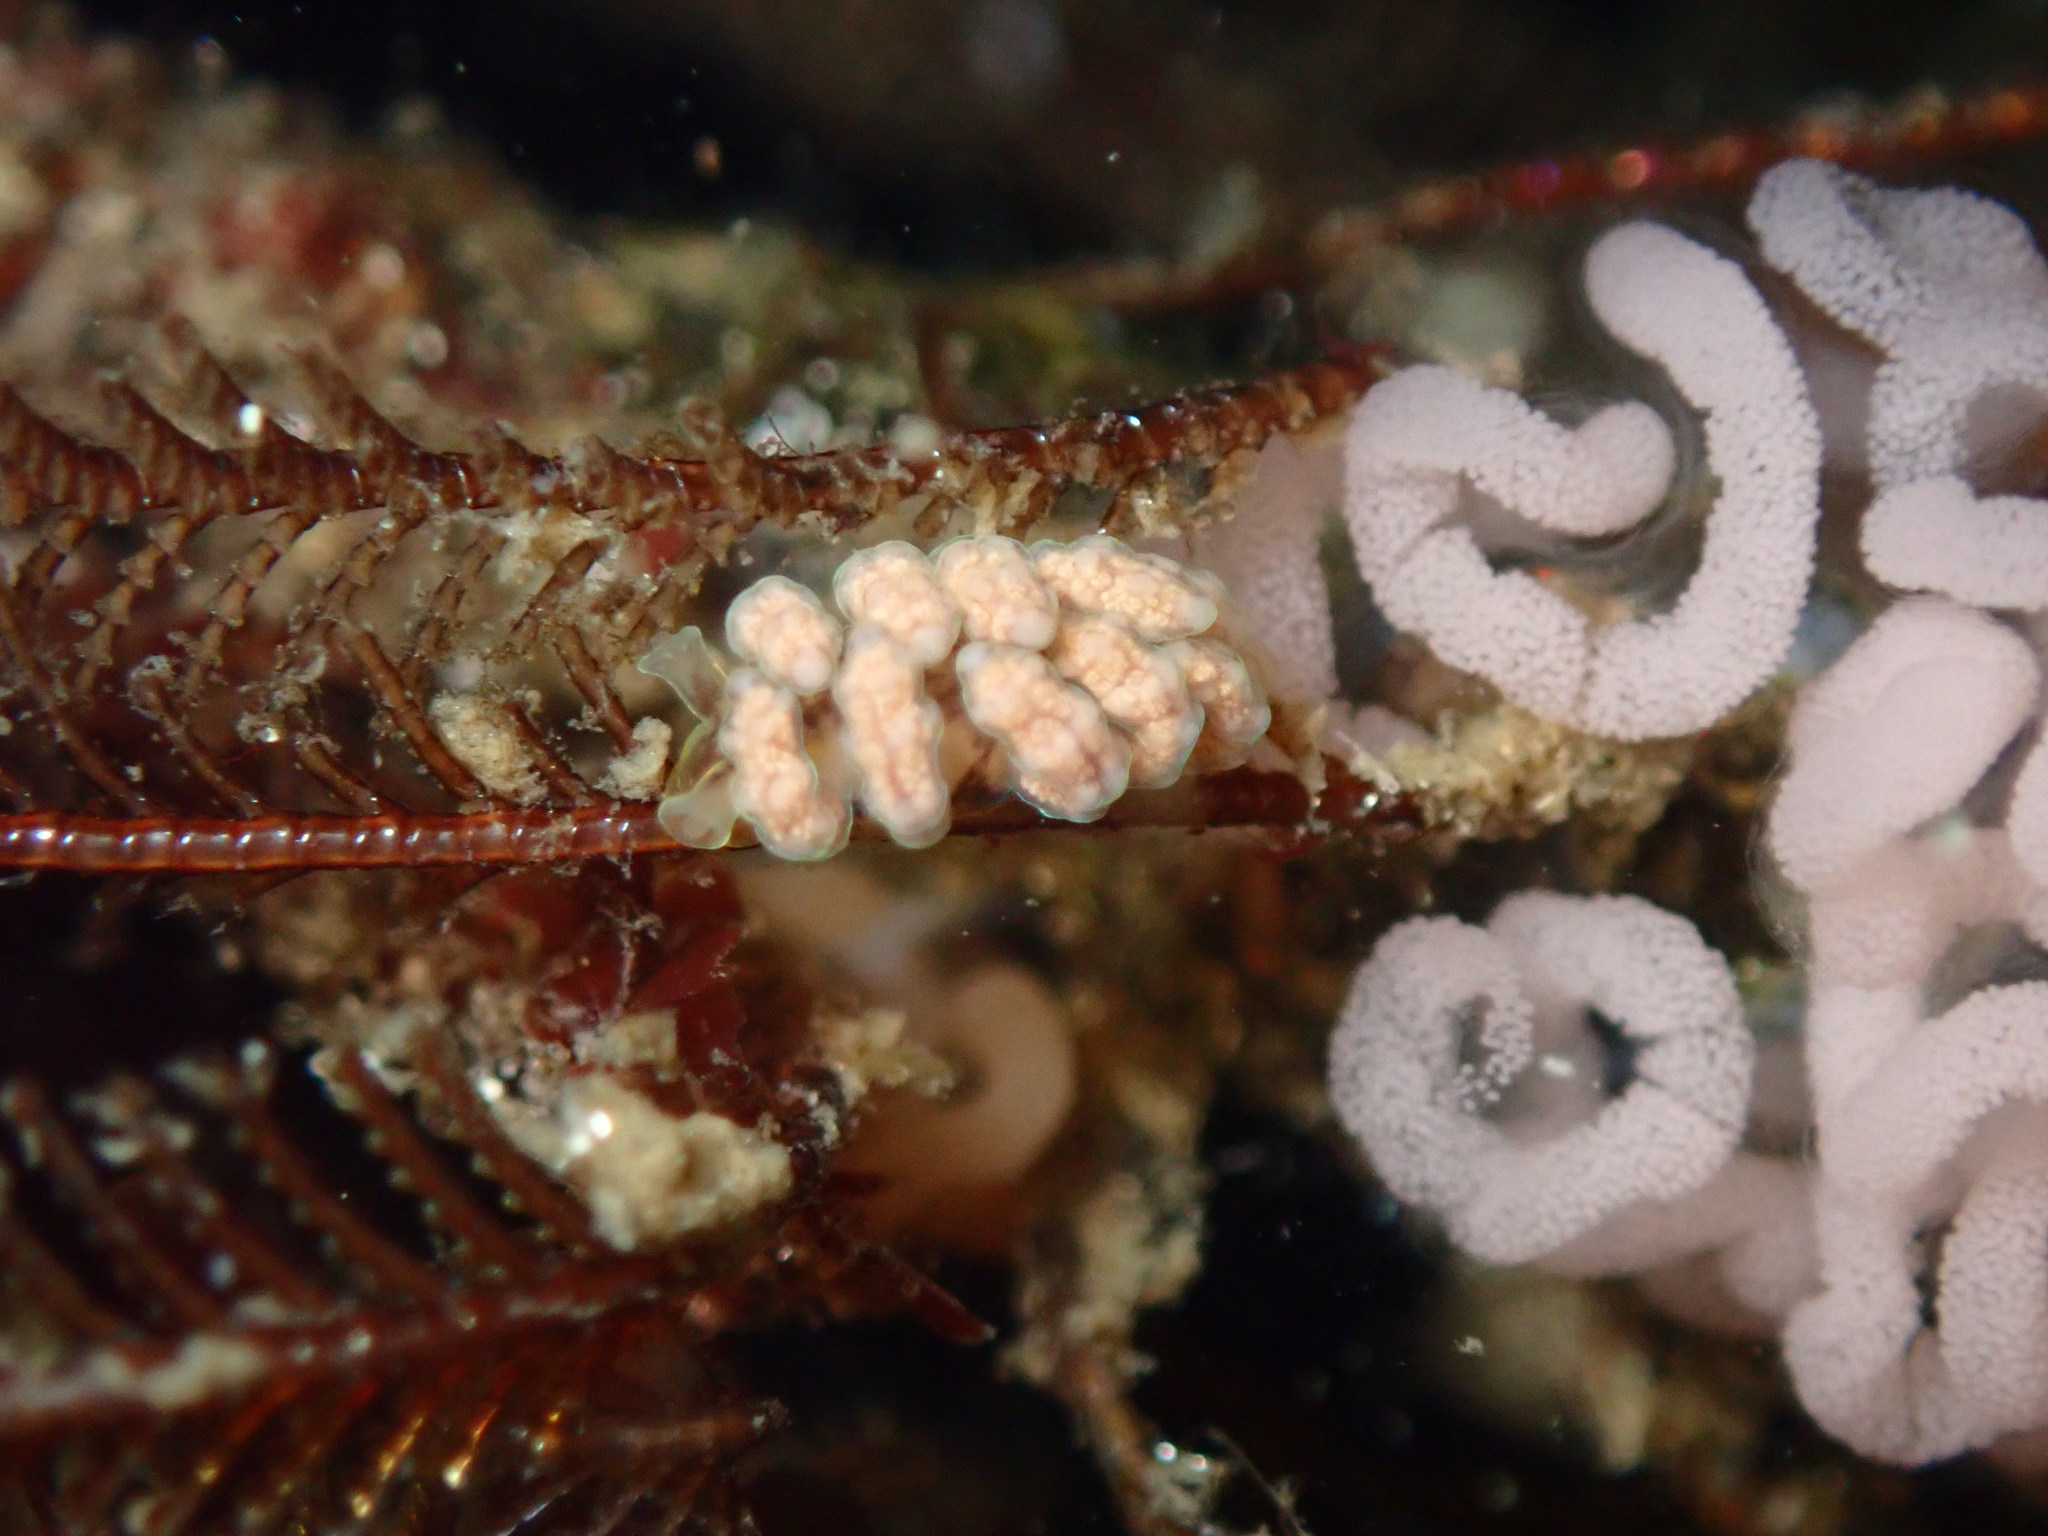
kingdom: Animalia
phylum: Mollusca
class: Gastropoda
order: Nudibranchia
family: Dotidae
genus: Doto
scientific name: Doto columbiana
